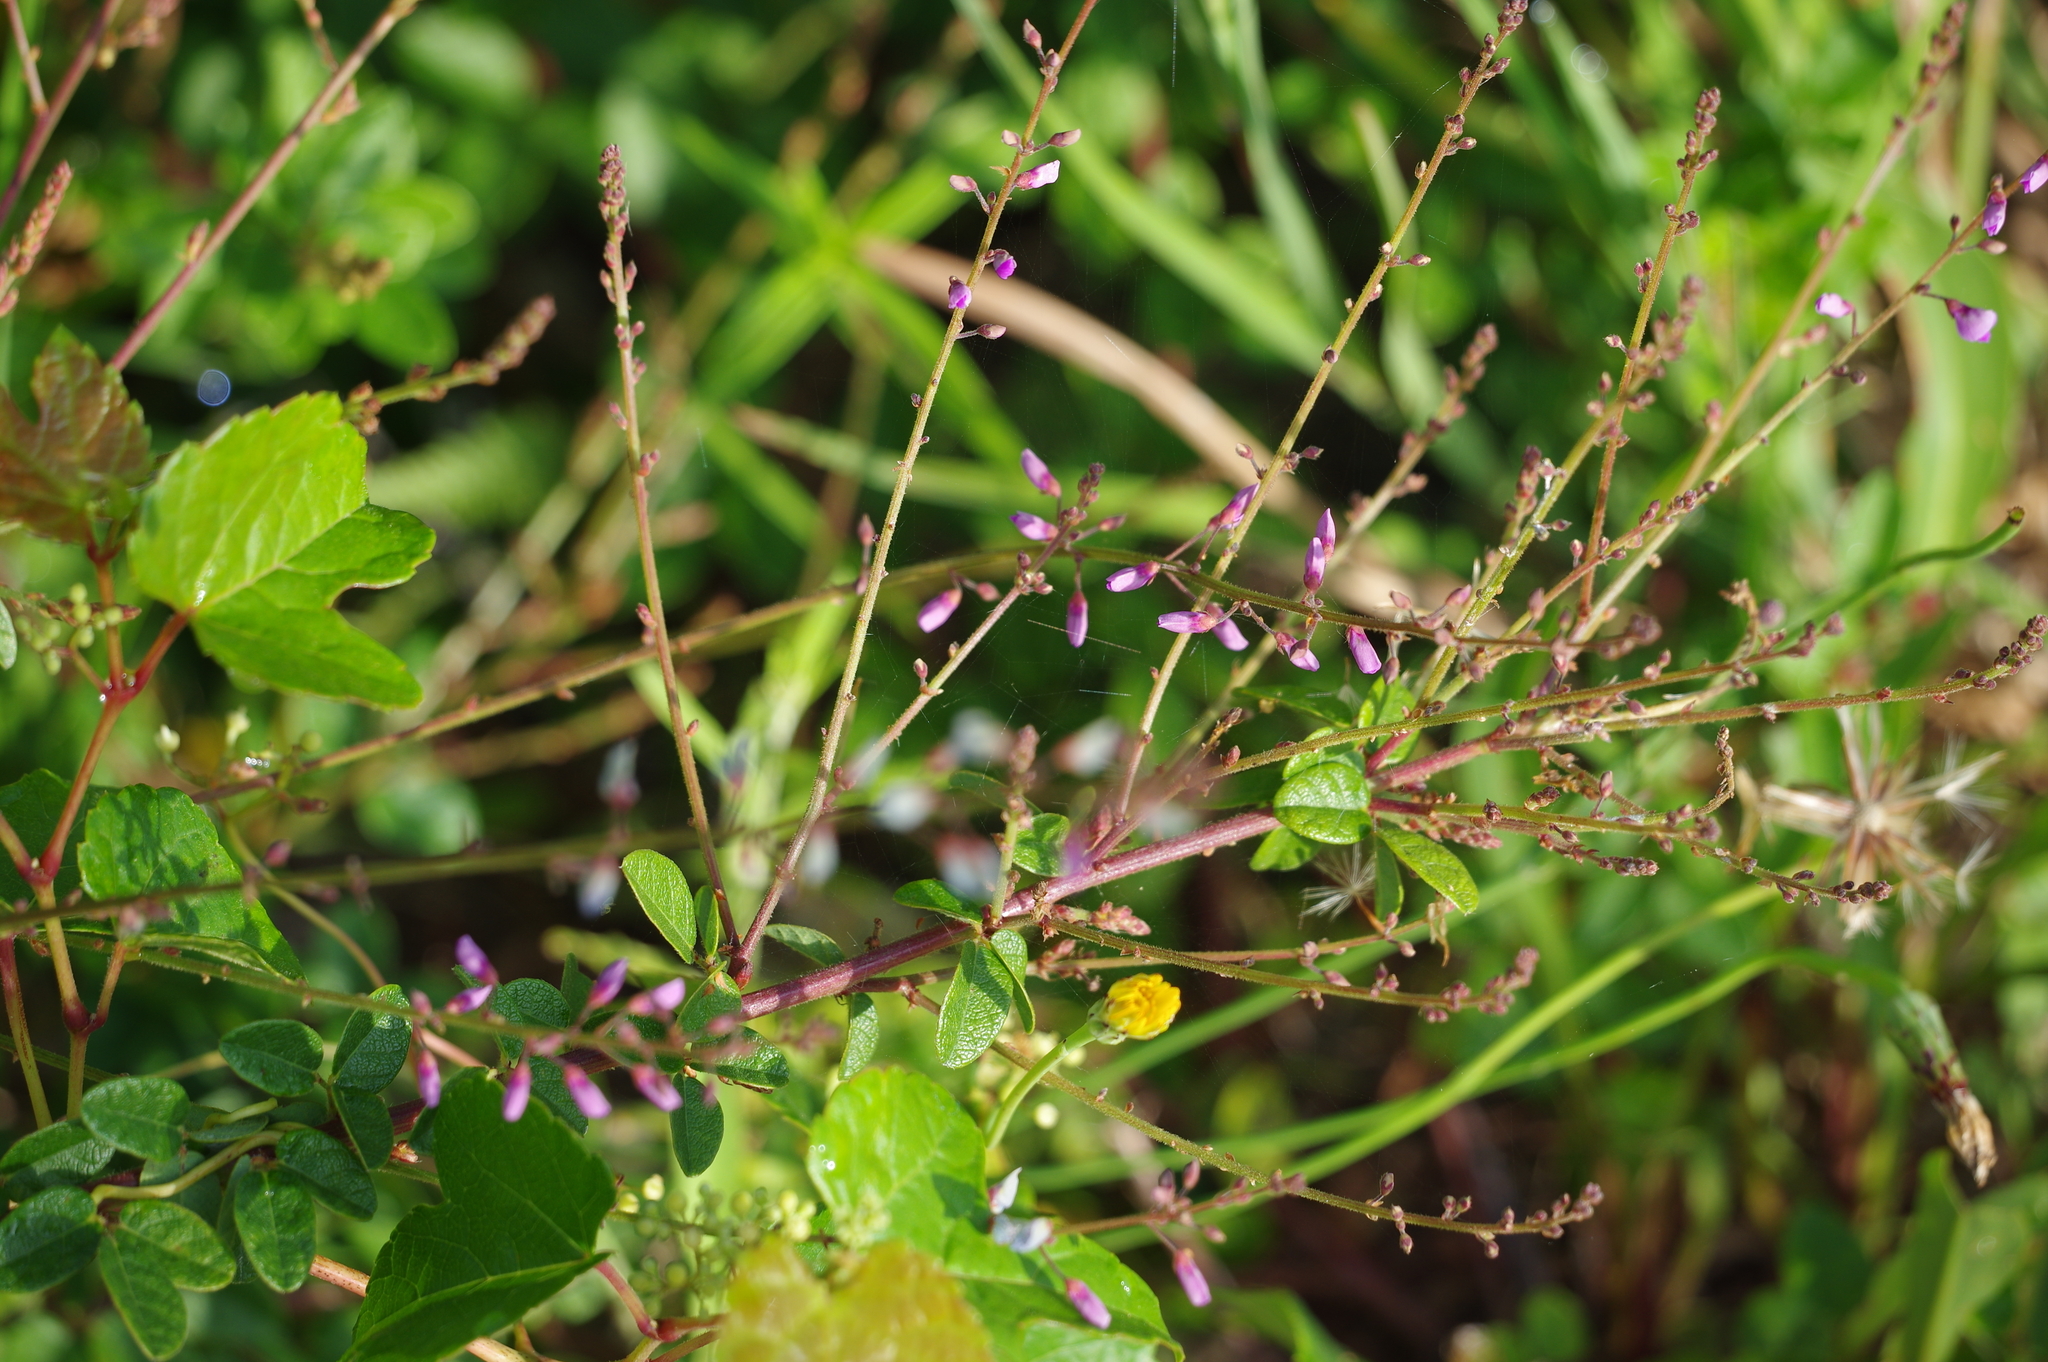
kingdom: Plantae
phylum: Tracheophyta
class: Magnoliopsida
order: Fabales
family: Fabaceae
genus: Desmodium
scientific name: Desmodium ciliare
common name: Hairy small-leaf ticktrefoil
